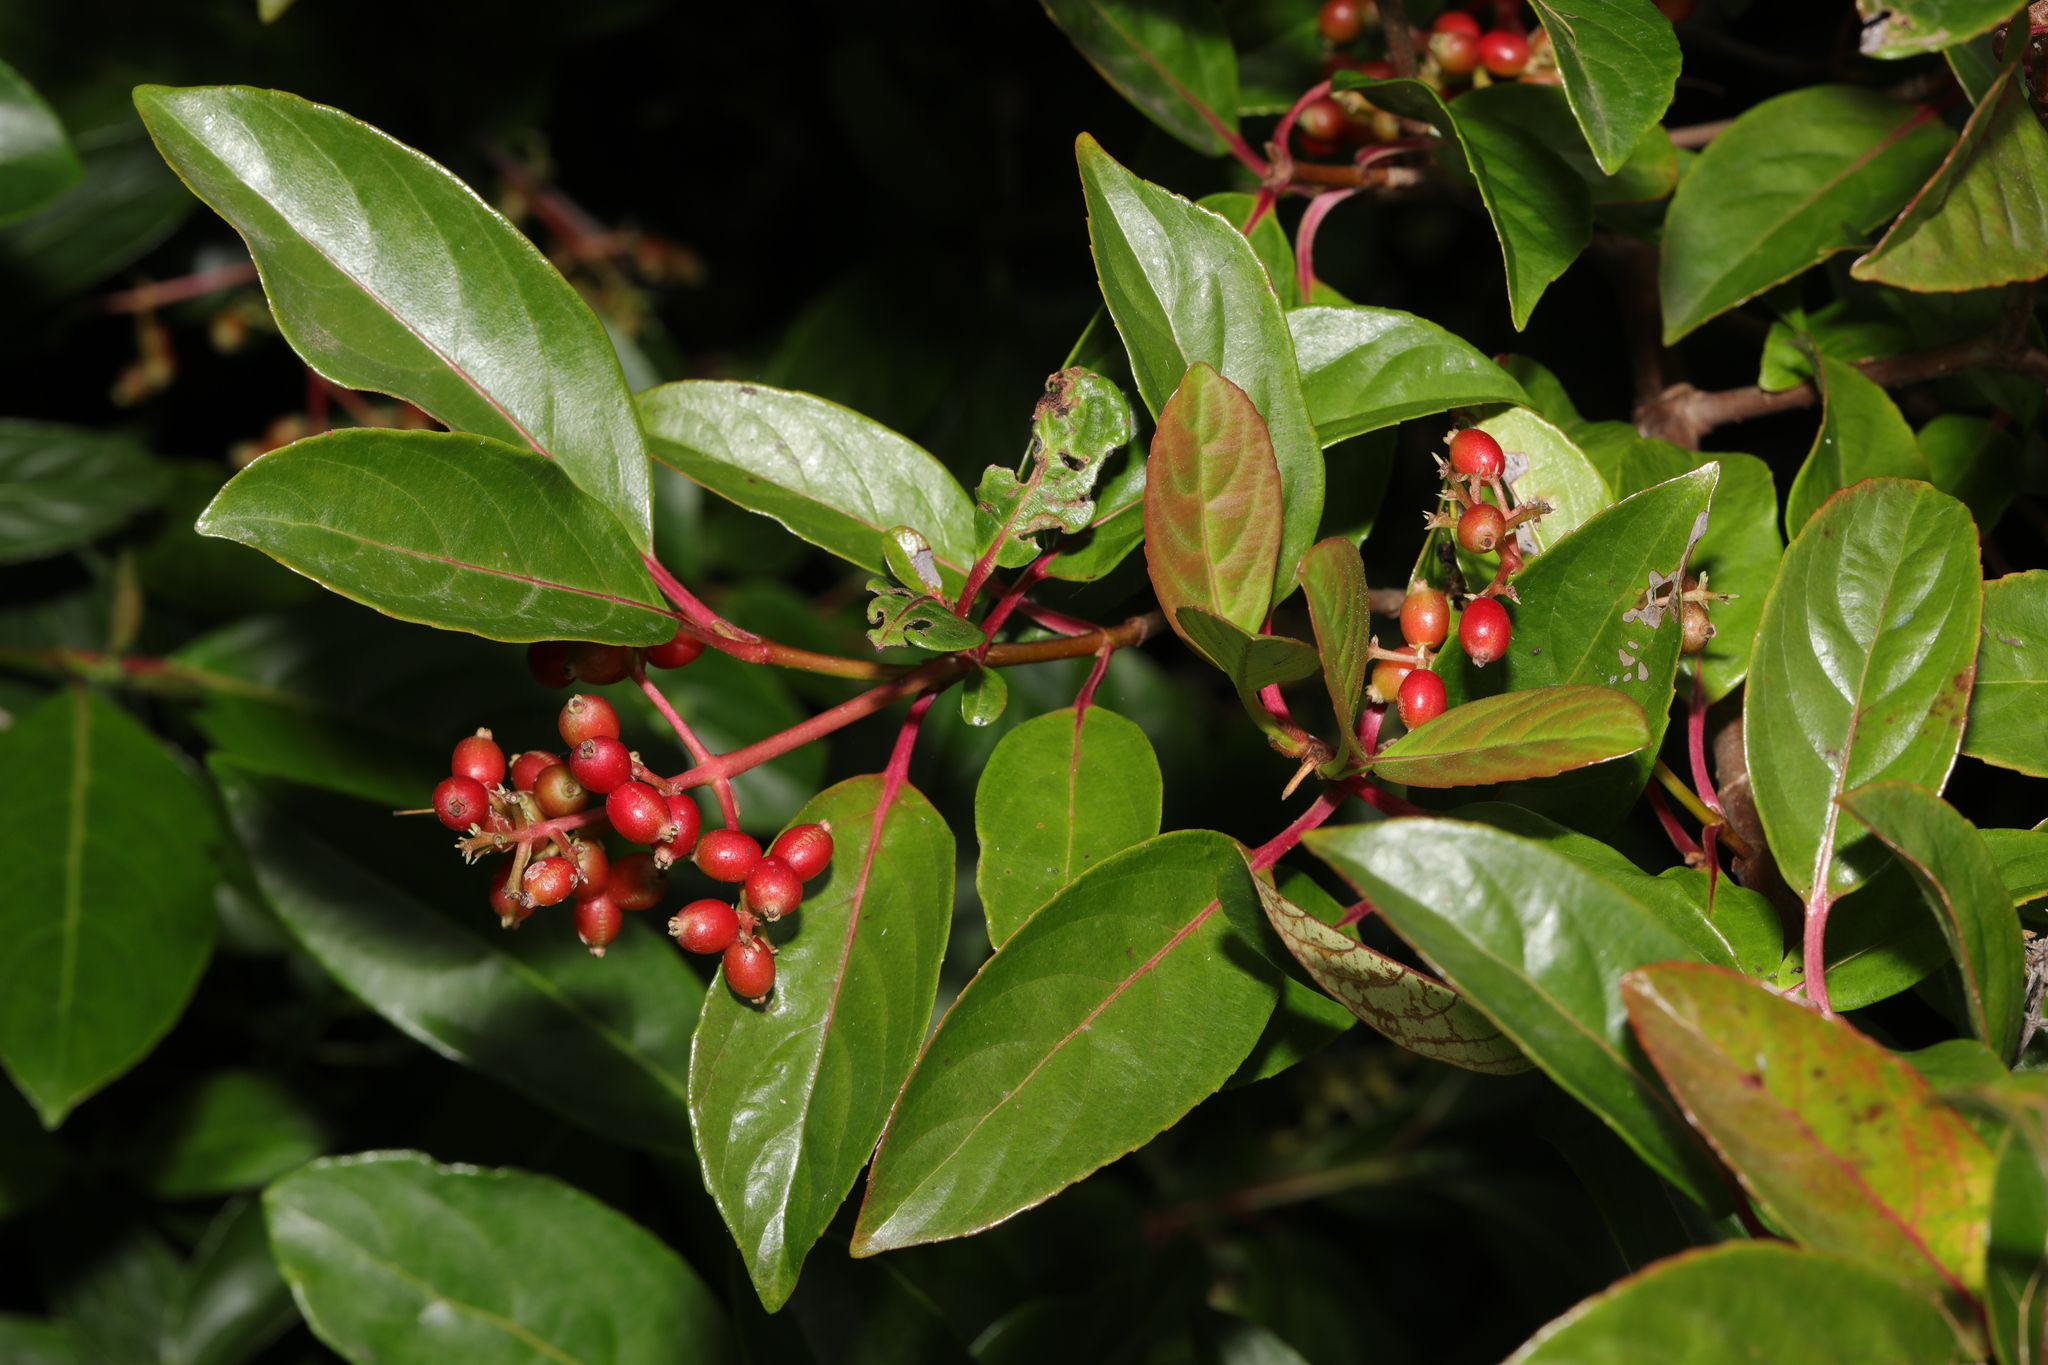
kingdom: Plantae
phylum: Tracheophyta
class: Magnoliopsida
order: Dipsacales
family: Viburnaceae
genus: Viburnum
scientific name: Viburnum tinus
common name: Laurustinus
